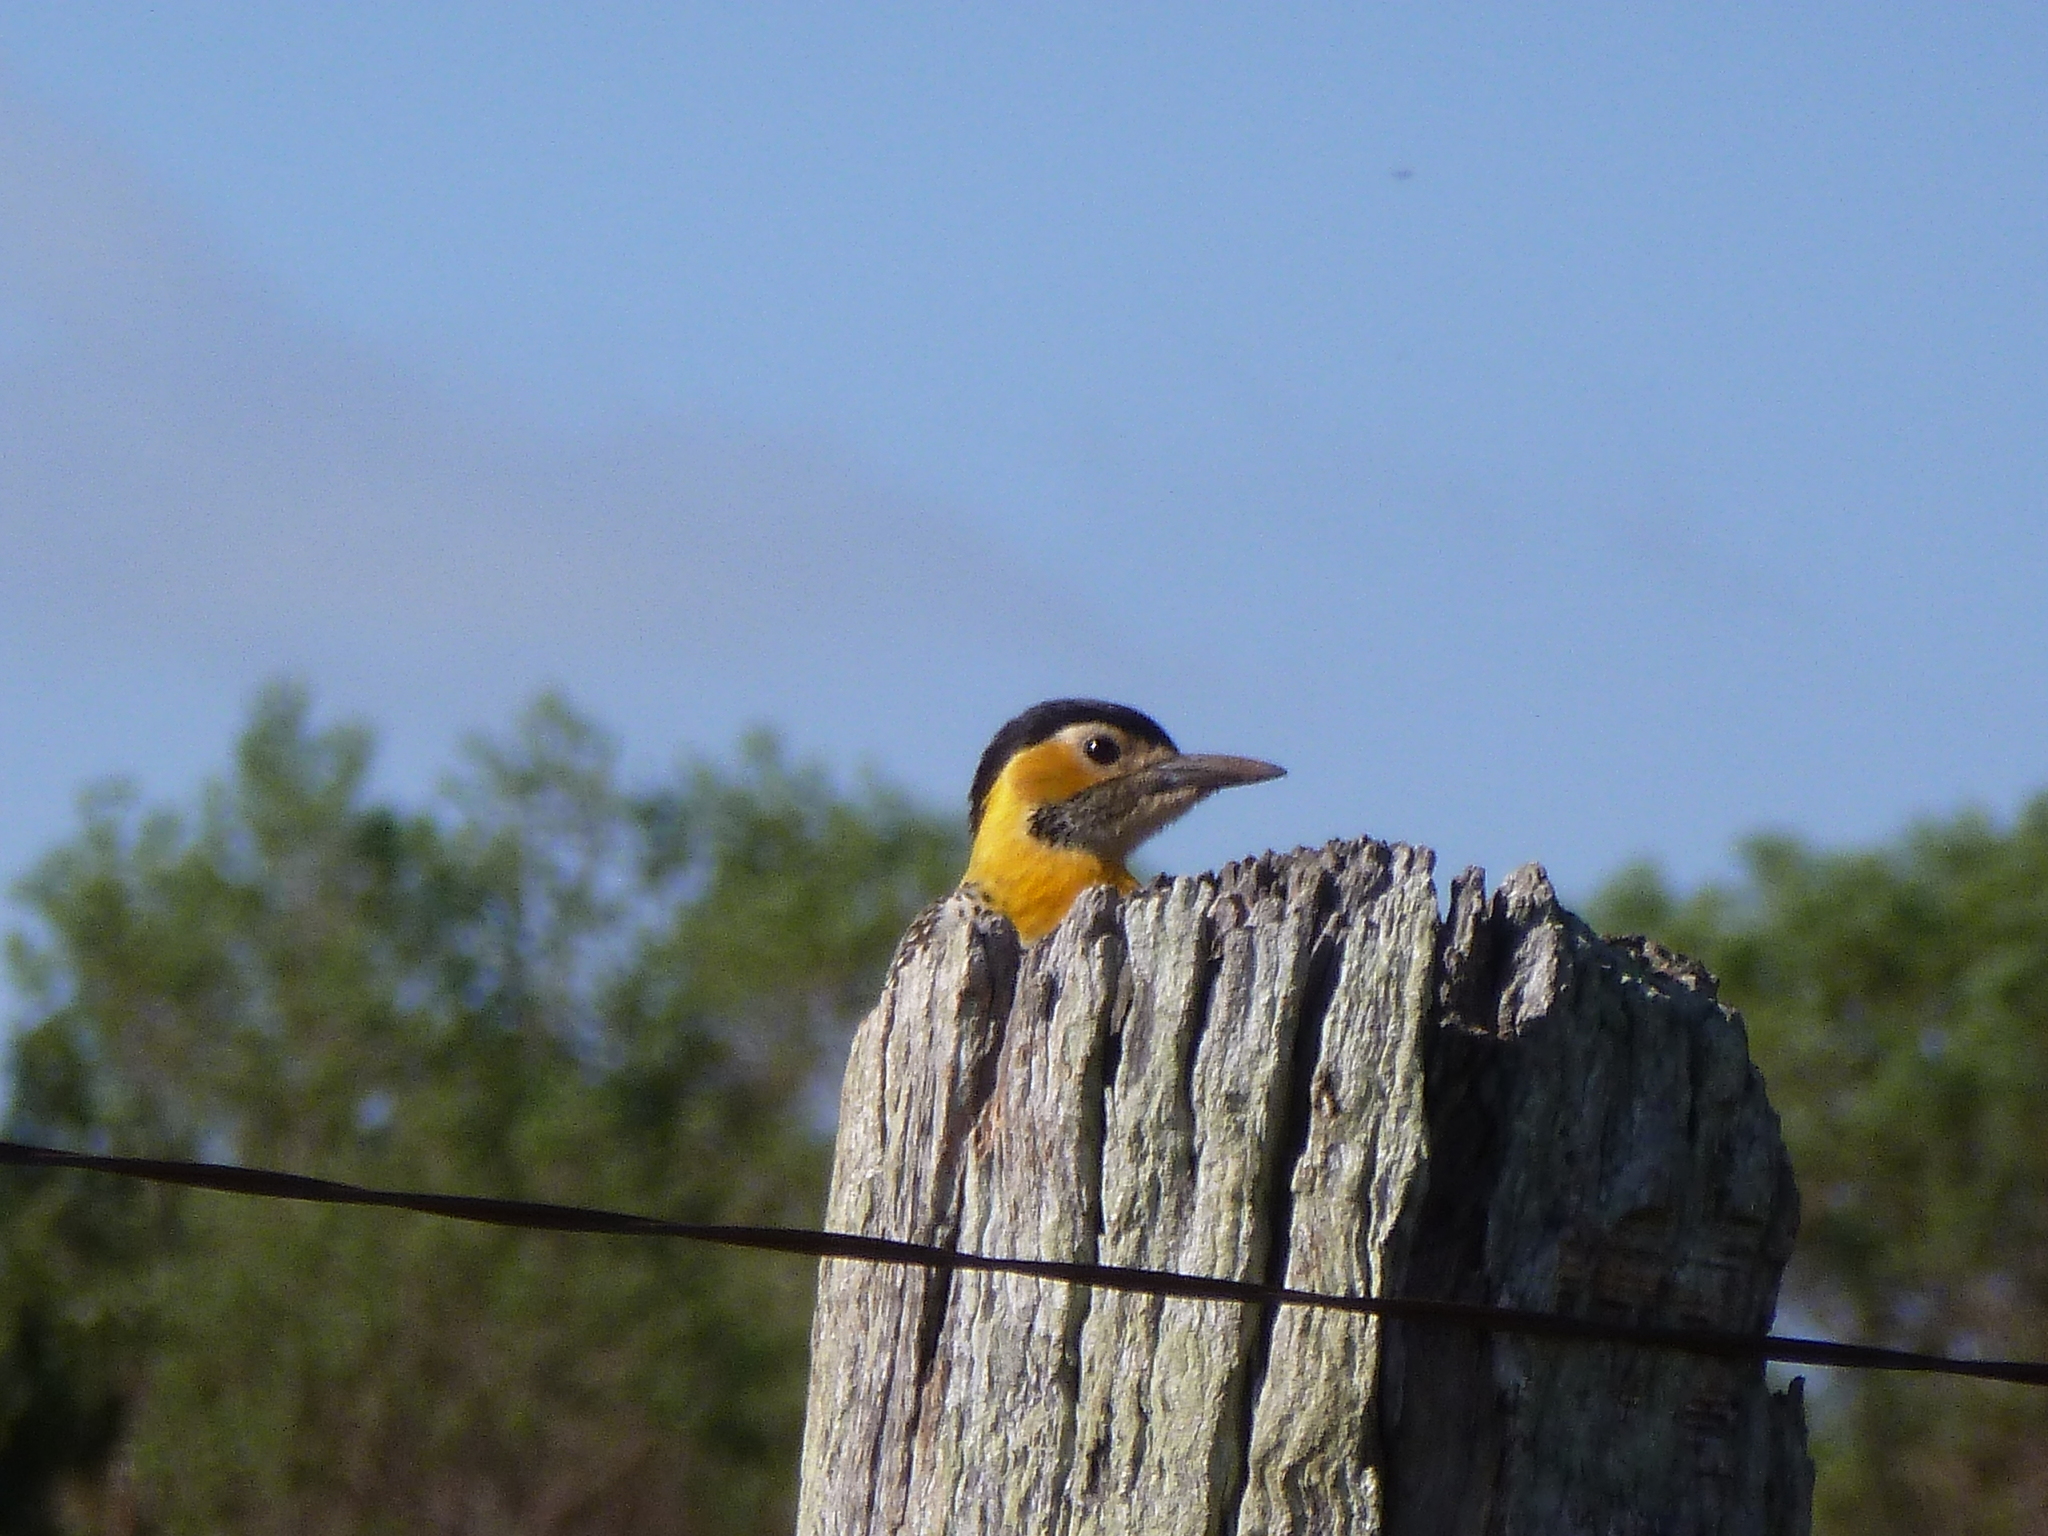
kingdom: Animalia
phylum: Chordata
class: Aves
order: Piciformes
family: Picidae
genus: Colaptes
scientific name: Colaptes campestris
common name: Campo flicker
